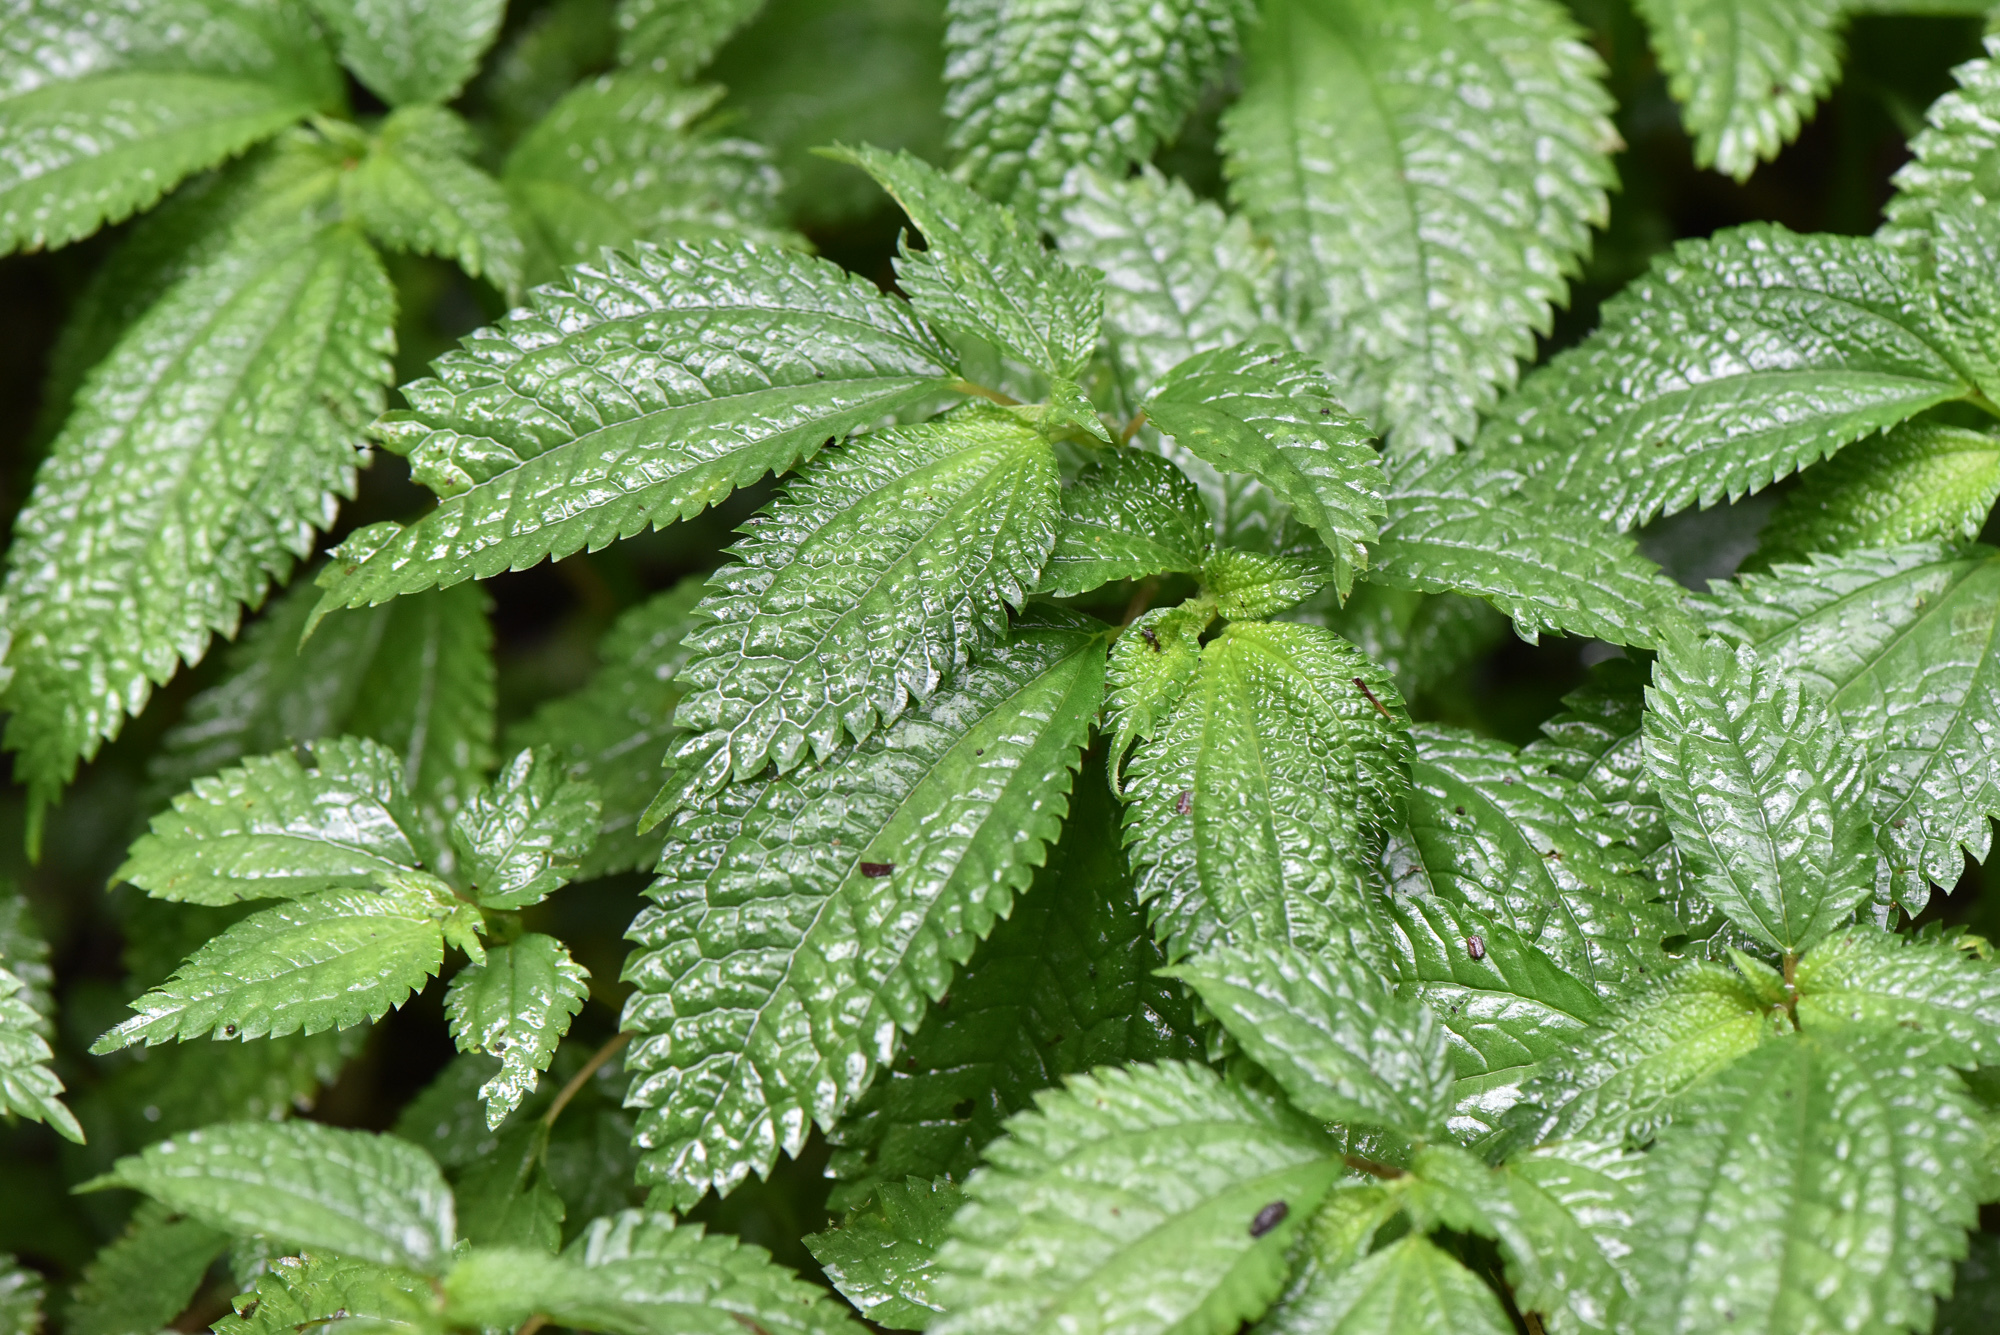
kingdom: Plantae
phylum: Tracheophyta
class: Magnoliopsida
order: Rosales
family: Urticaceae
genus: Lecanthus
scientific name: Lecanthus peduncularis
